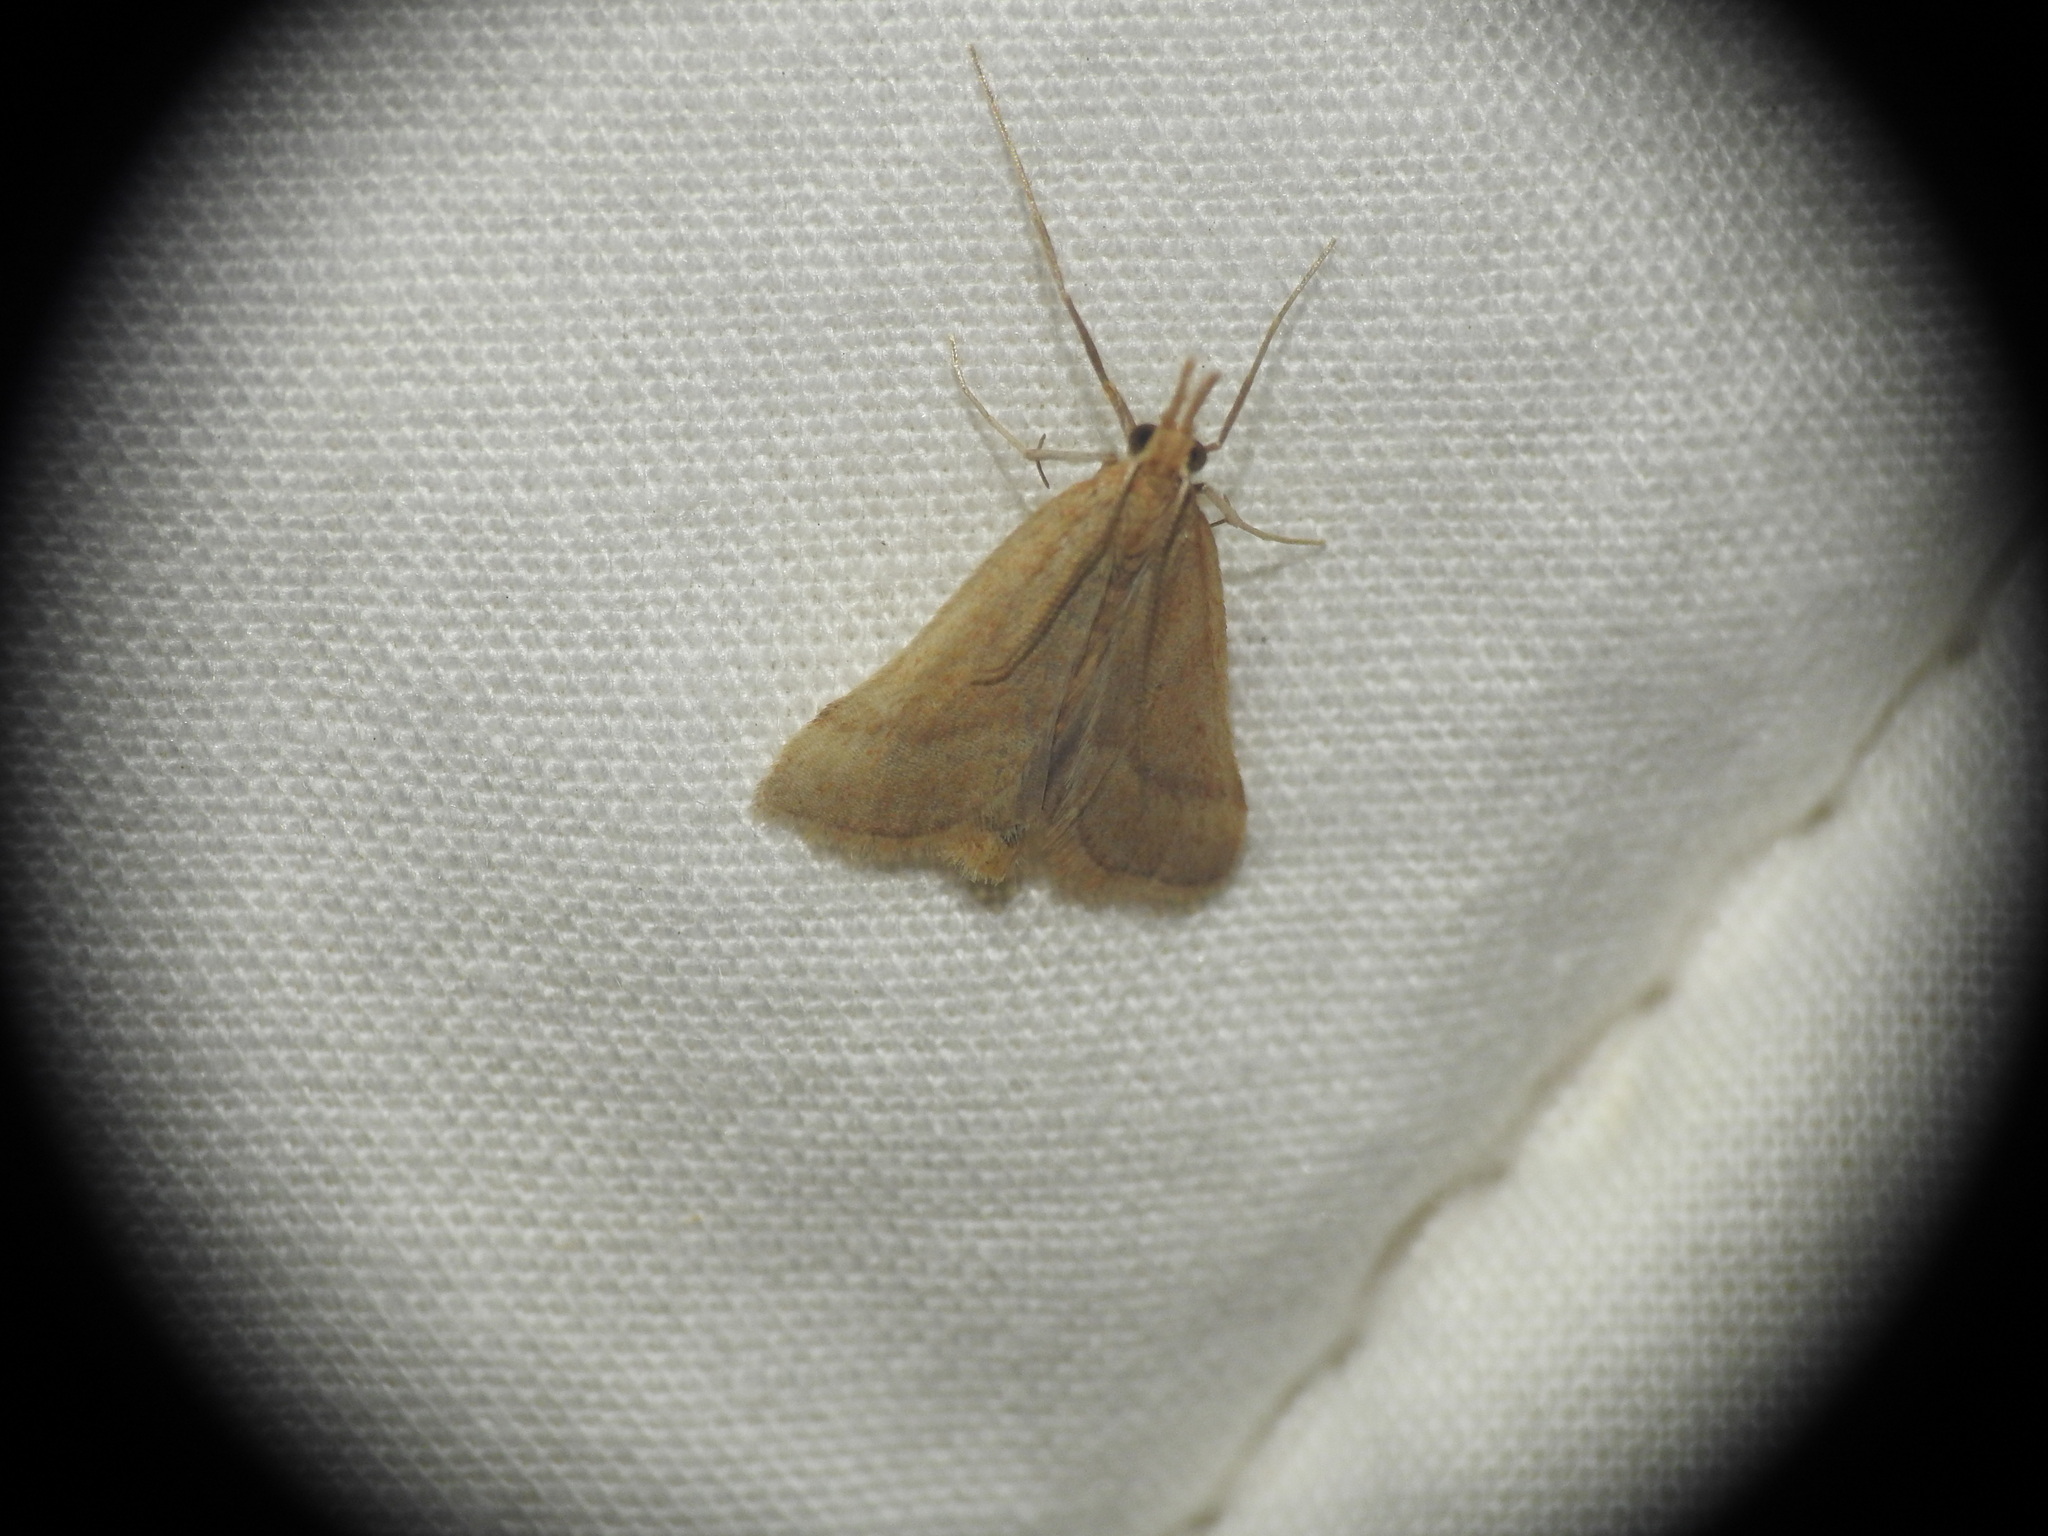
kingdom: Animalia
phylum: Arthropoda
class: Insecta
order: Lepidoptera
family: Pyralidae
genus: Synaphe
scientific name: Synaphe punctalis
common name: Long-legged tabby
